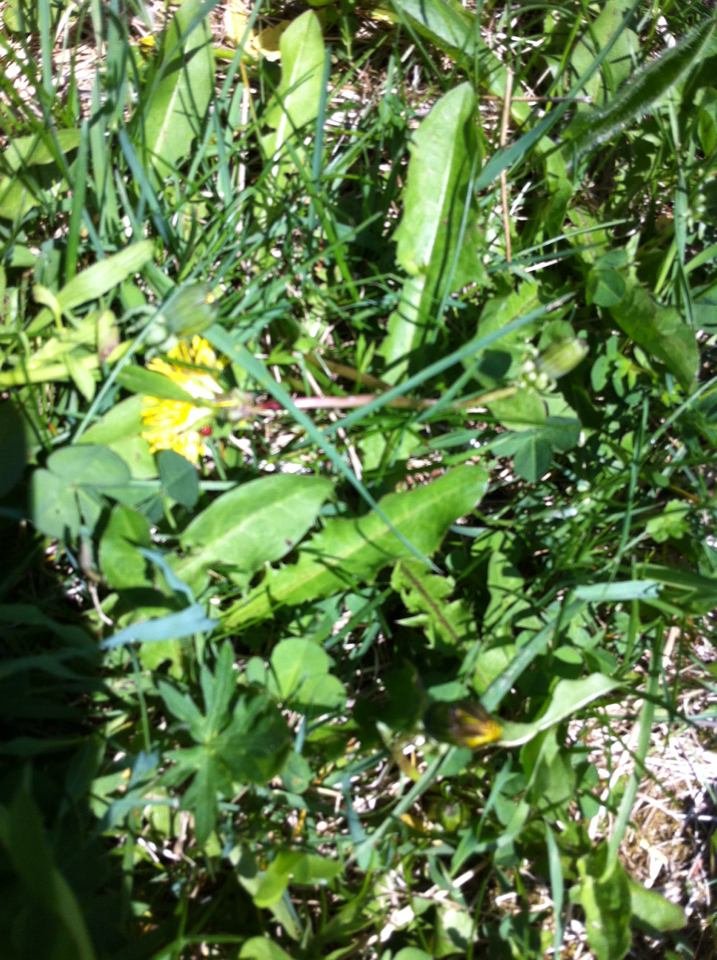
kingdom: Plantae
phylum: Tracheophyta
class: Magnoliopsida
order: Asterales
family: Asteraceae
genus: Taraxacum
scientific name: Taraxacum
